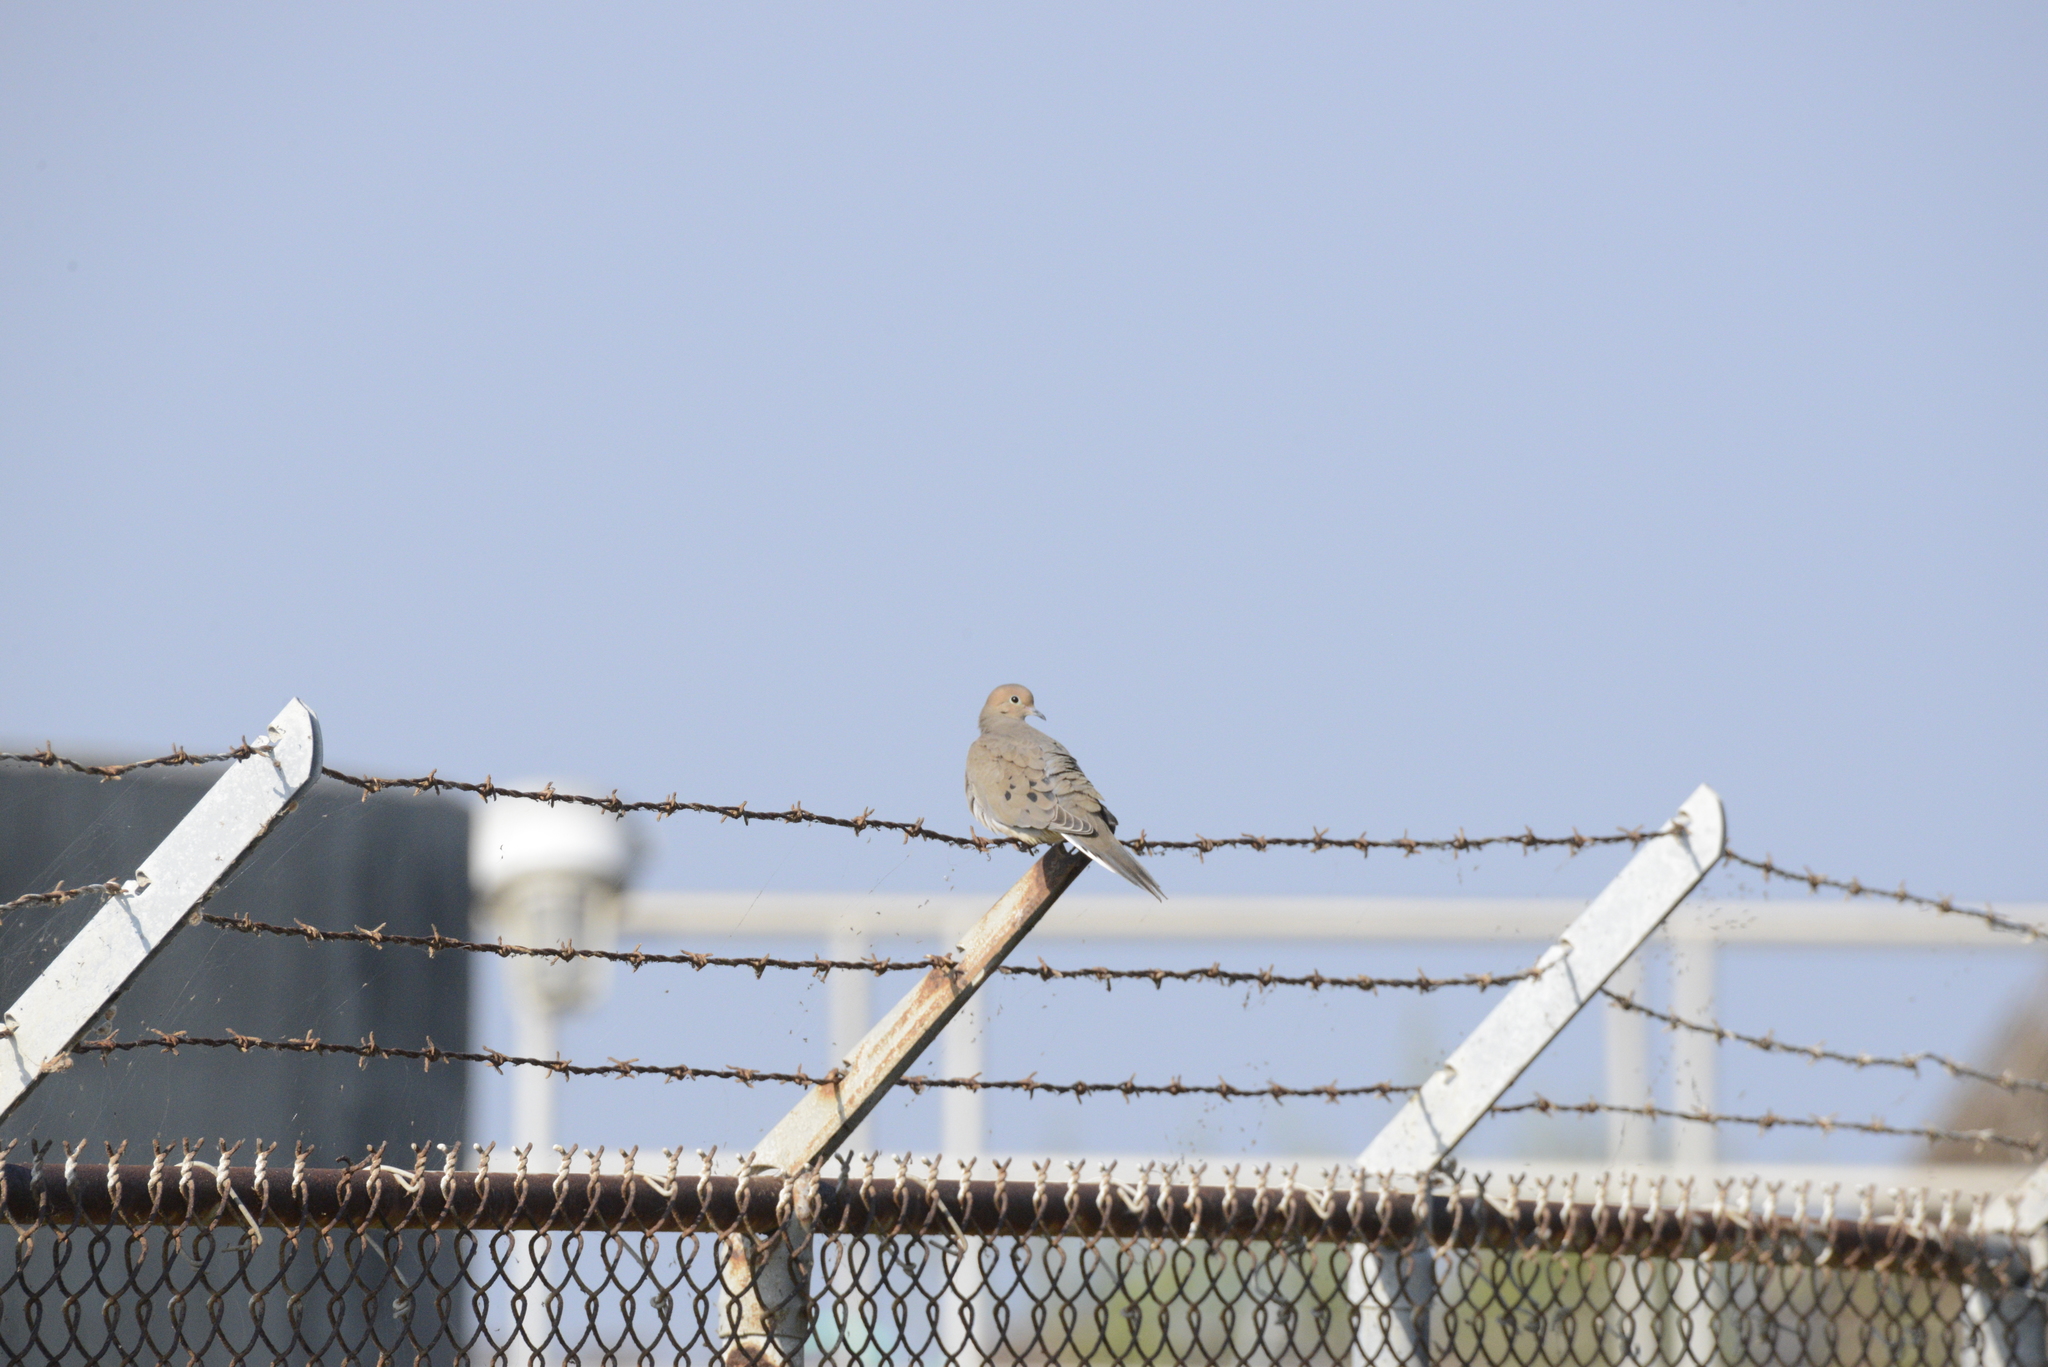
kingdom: Animalia
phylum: Chordata
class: Aves
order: Columbiformes
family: Columbidae
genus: Zenaida
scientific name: Zenaida macroura
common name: Mourning dove
